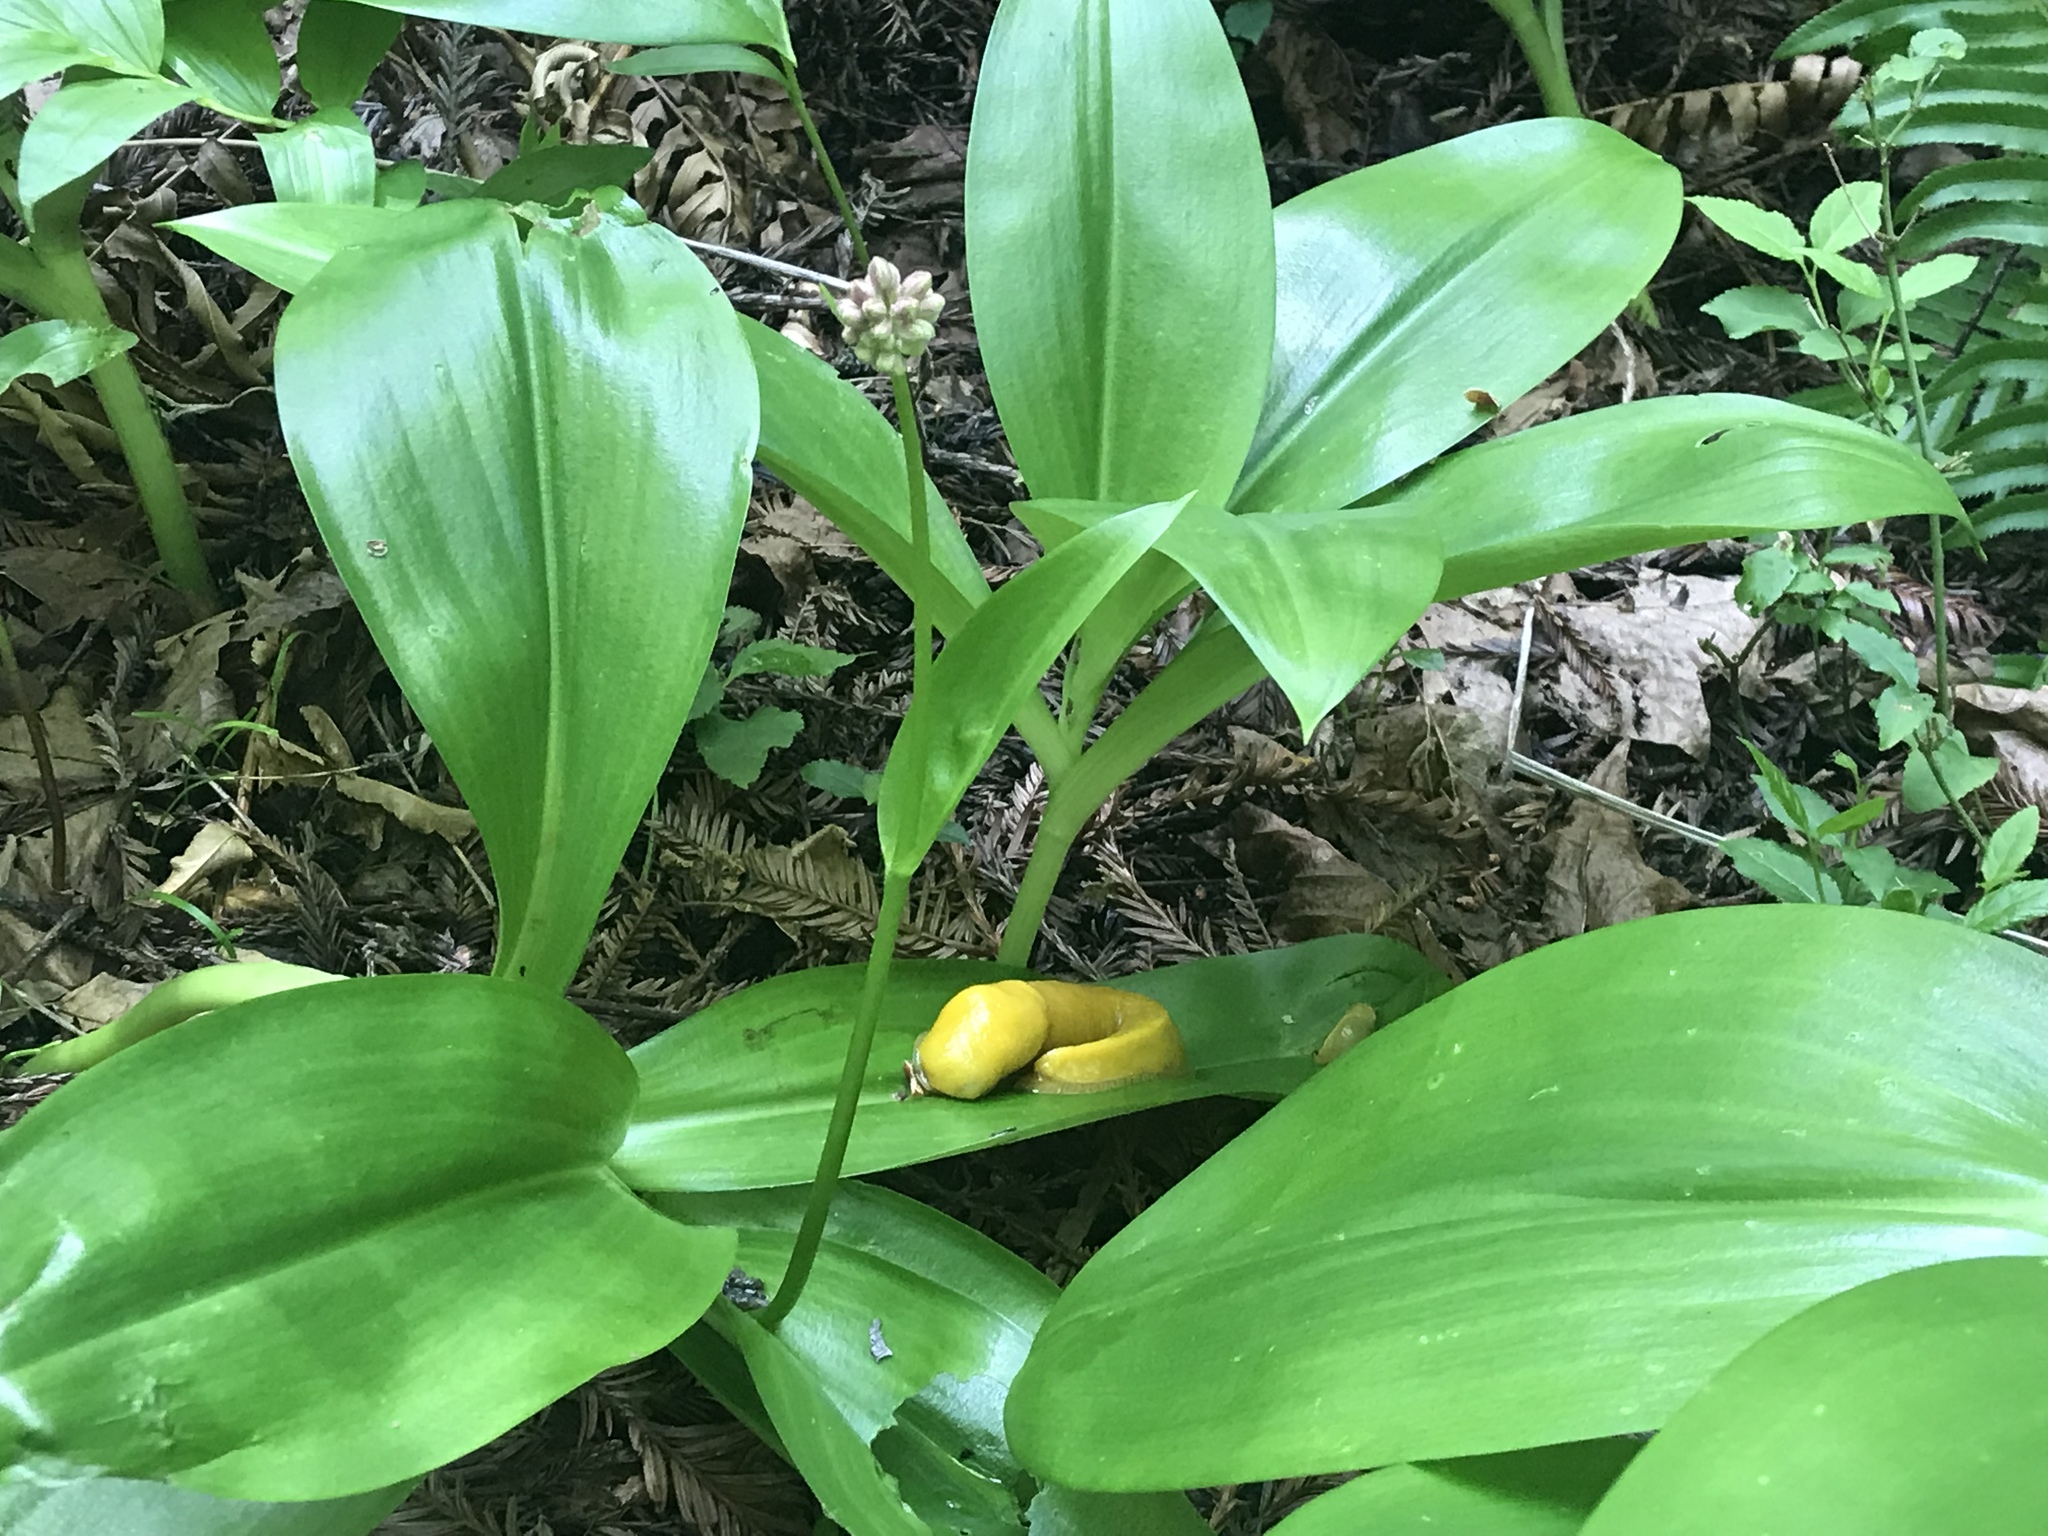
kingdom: Plantae
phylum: Tracheophyta
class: Liliopsida
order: Liliales
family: Liliaceae
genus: Clintonia
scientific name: Clintonia andrewsiana
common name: Red clintonia
